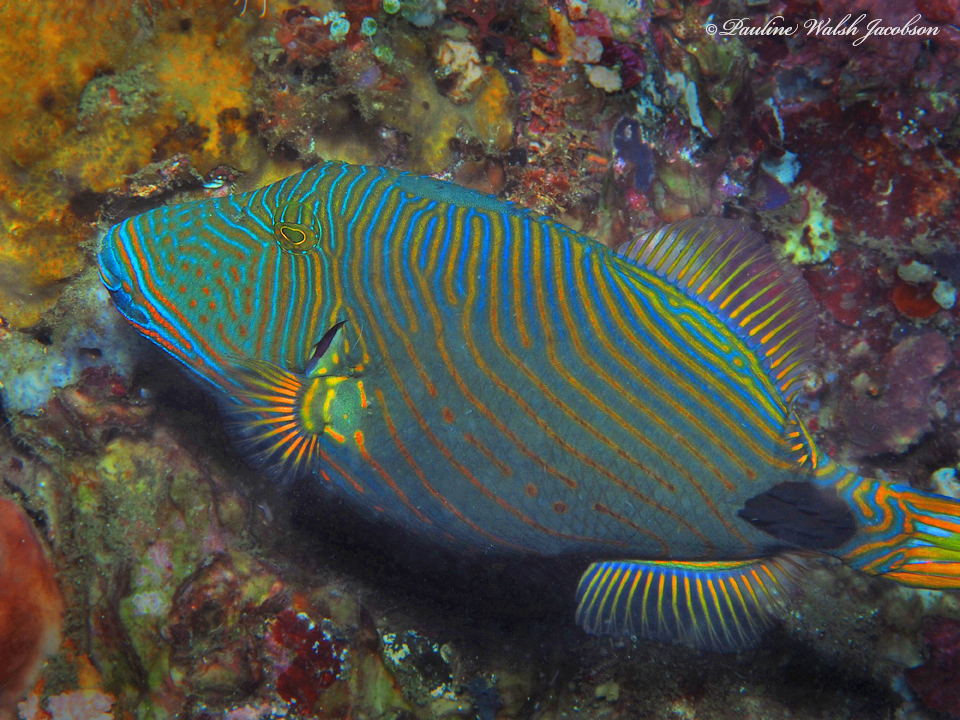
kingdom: Animalia
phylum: Chordata
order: Tetraodontiformes
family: Balistidae
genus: Balistapus
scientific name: Balistapus undulatus
